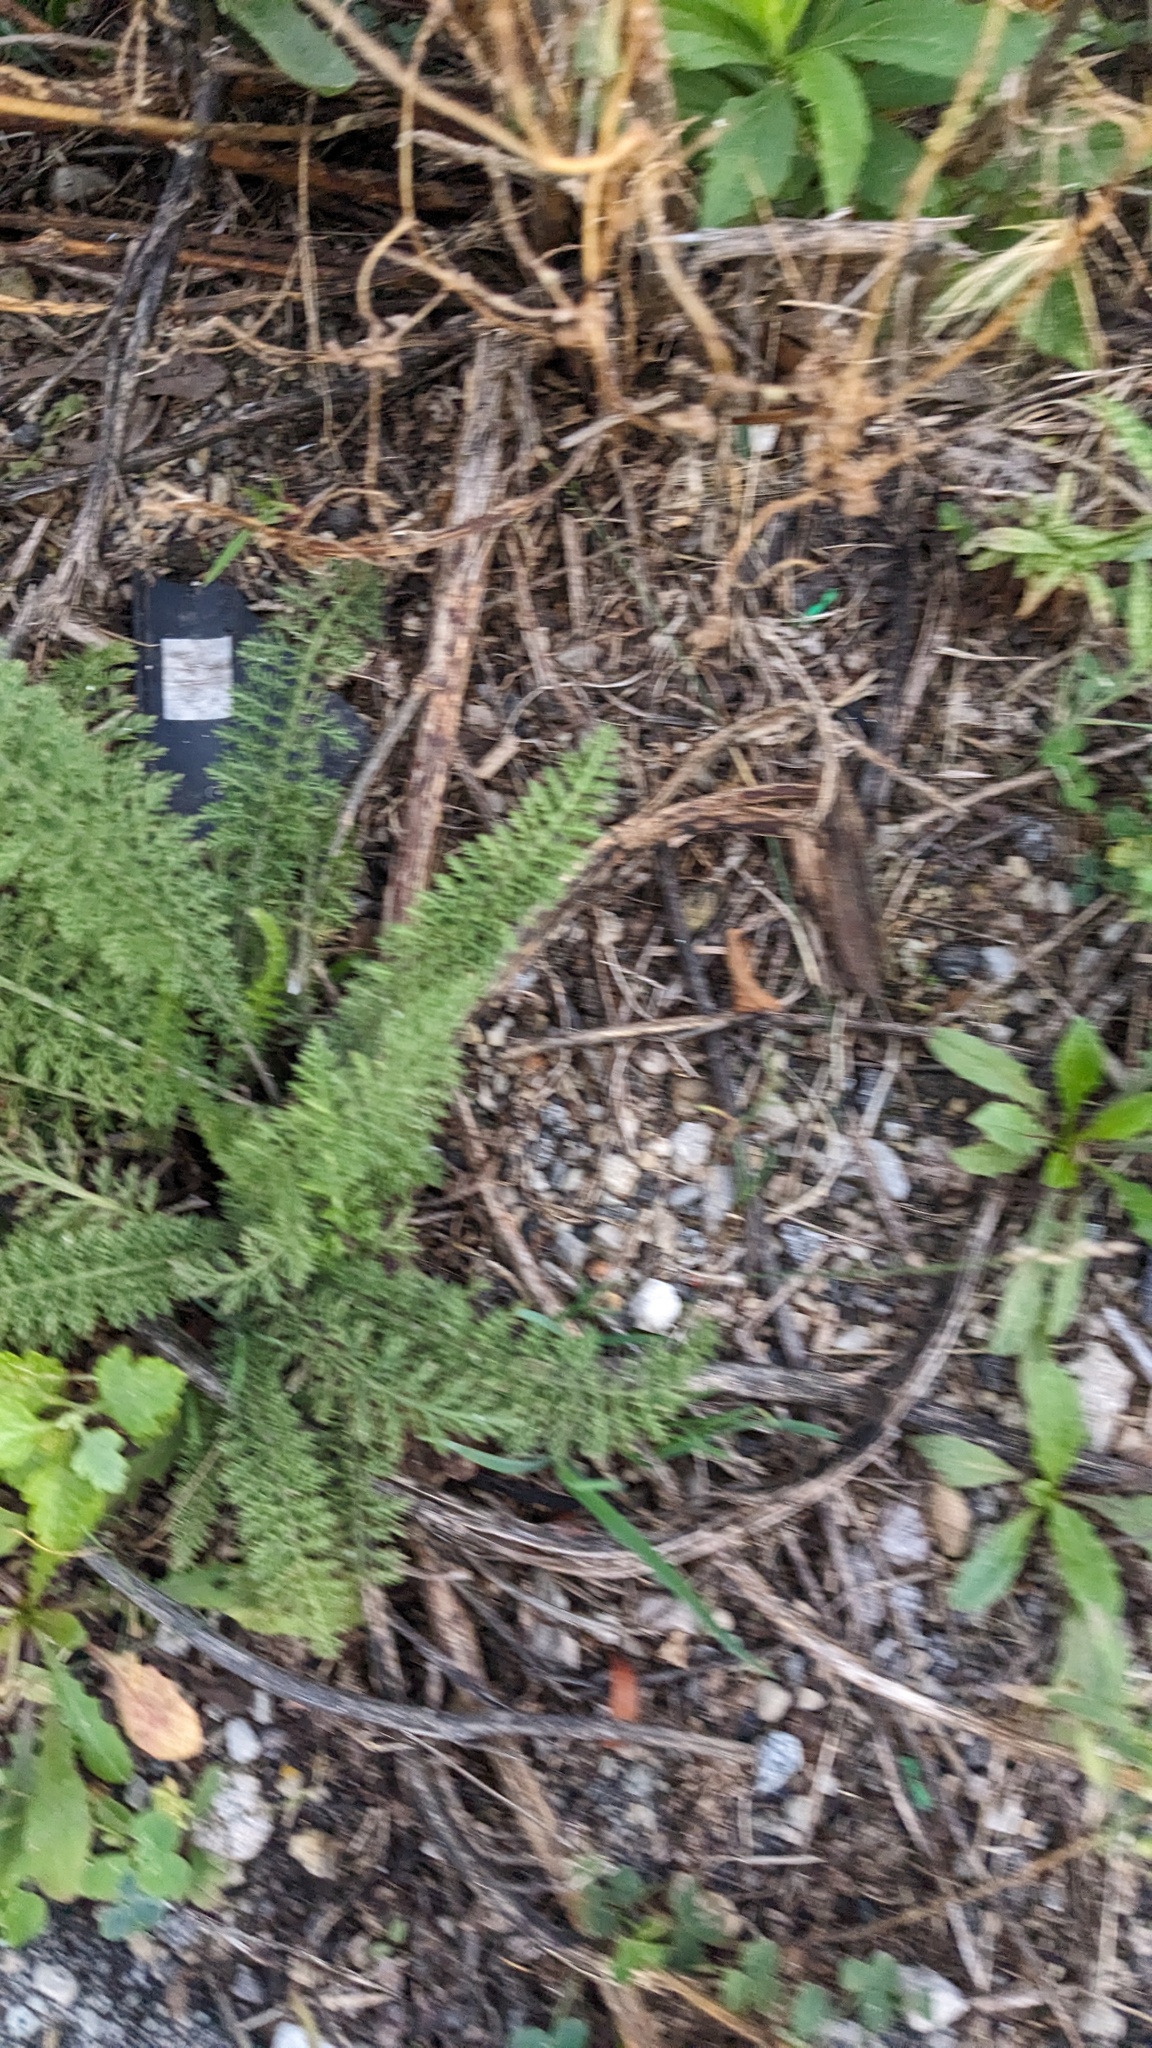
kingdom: Plantae
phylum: Tracheophyta
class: Magnoliopsida
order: Asterales
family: Asteraceae
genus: Achillea
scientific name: Achillea millefolium
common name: Yarrow
